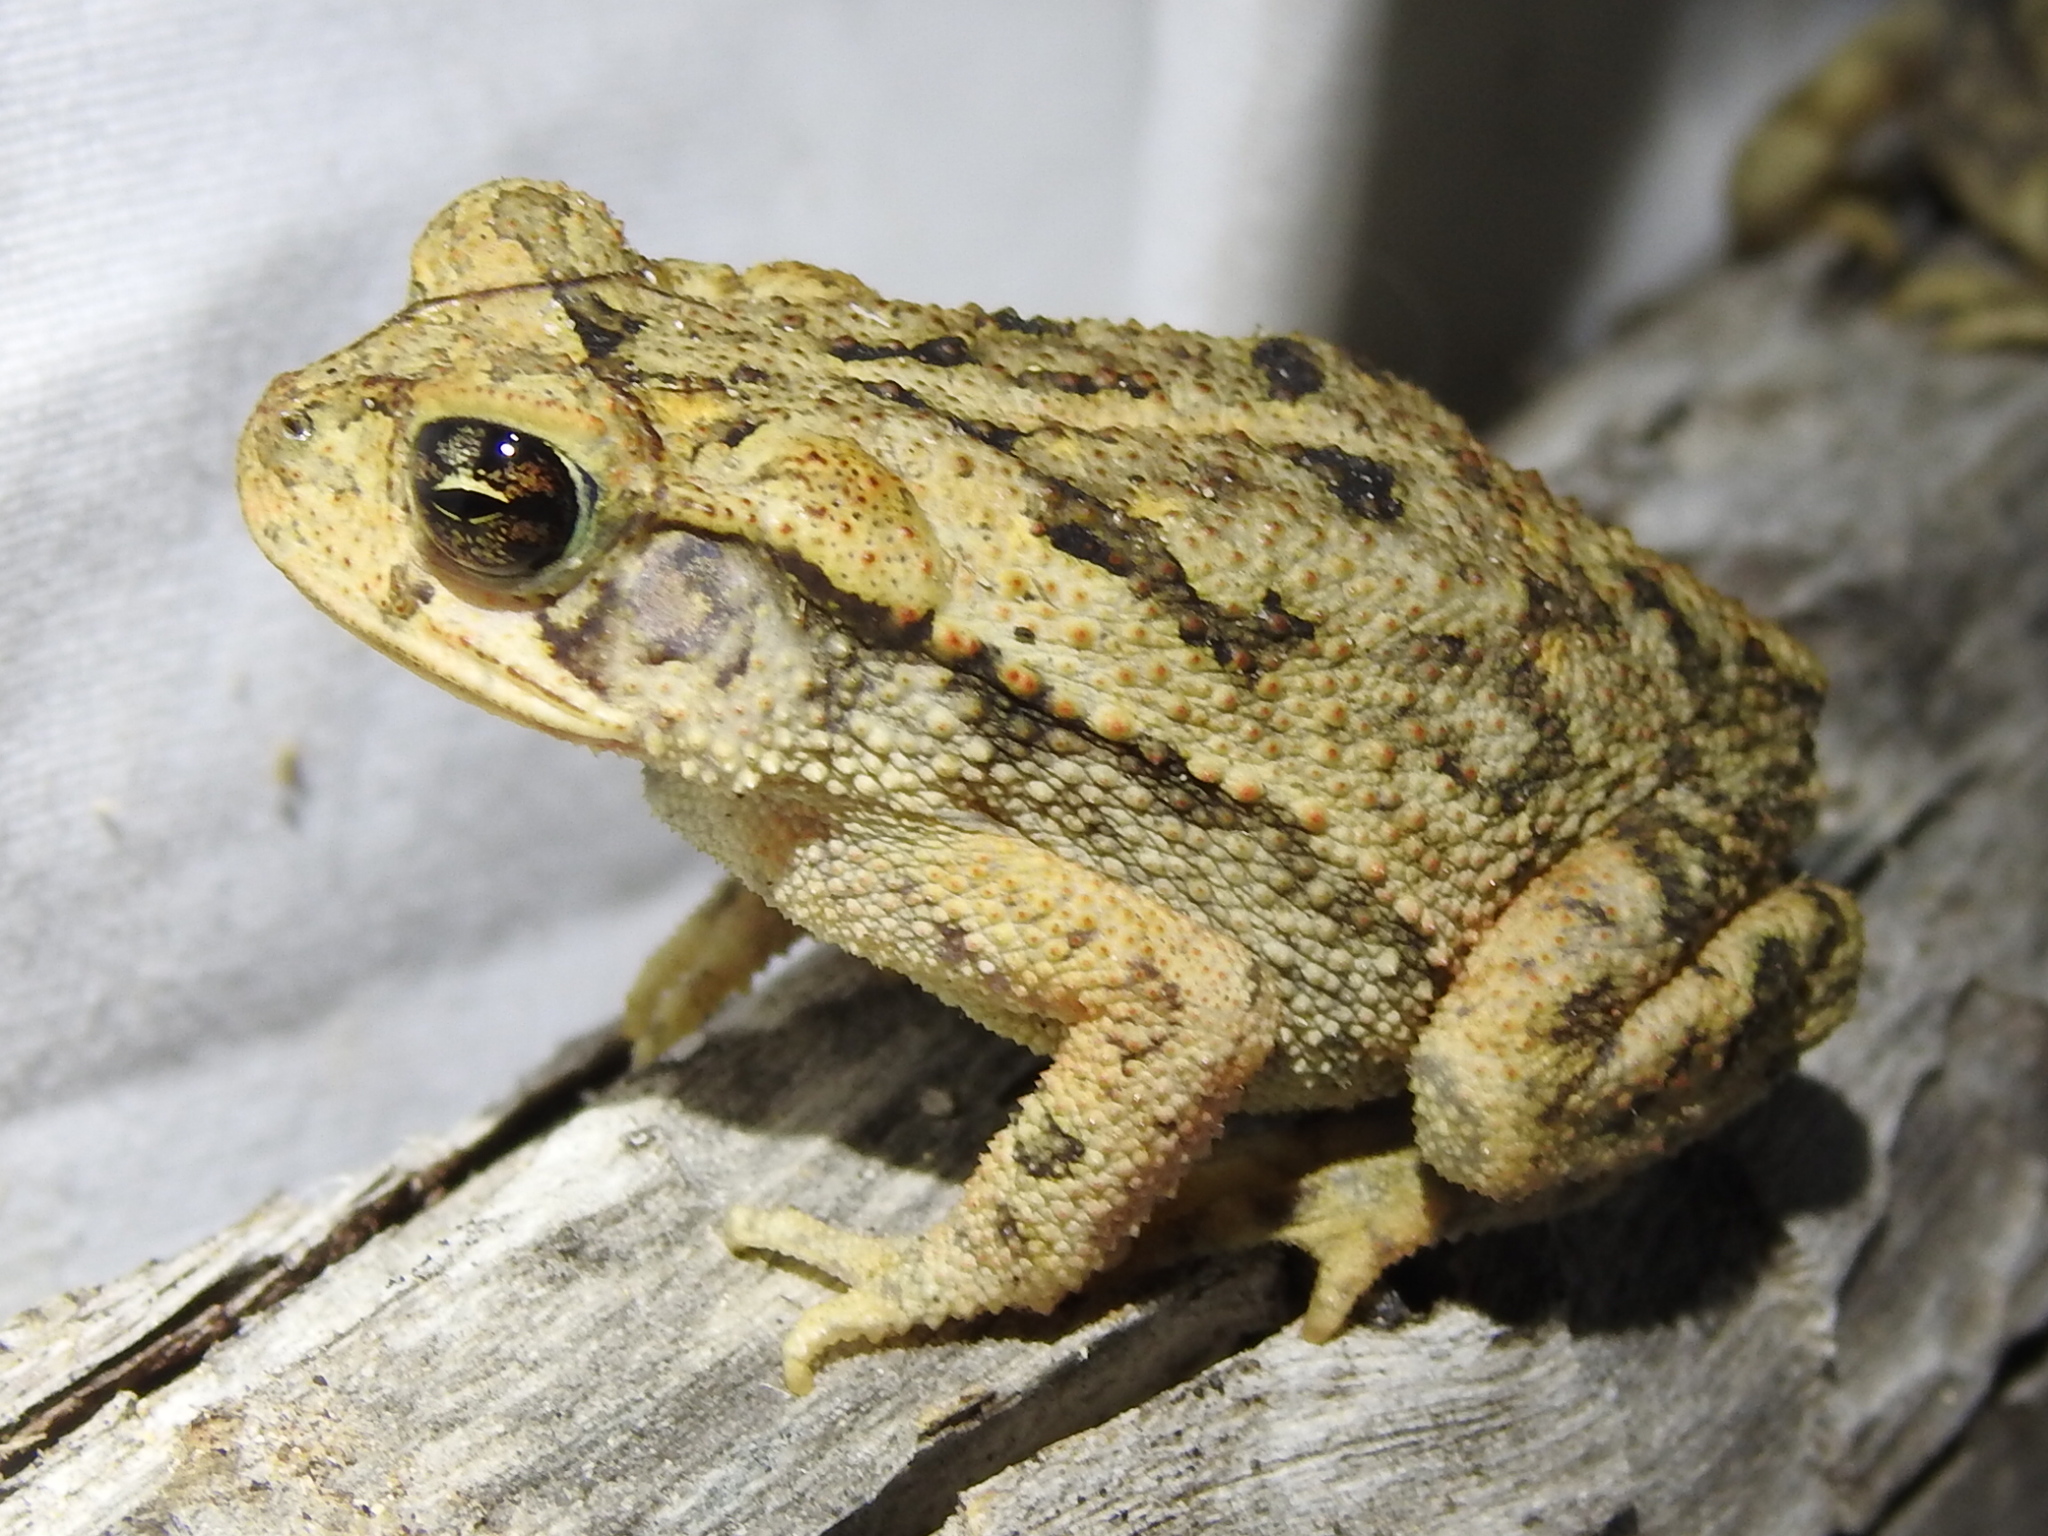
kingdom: Animalia
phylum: Chordata
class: Amphibia
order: Anura
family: Bufonidae
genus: Incilius
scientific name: Incilius nebulifer
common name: Gulf coast toad
